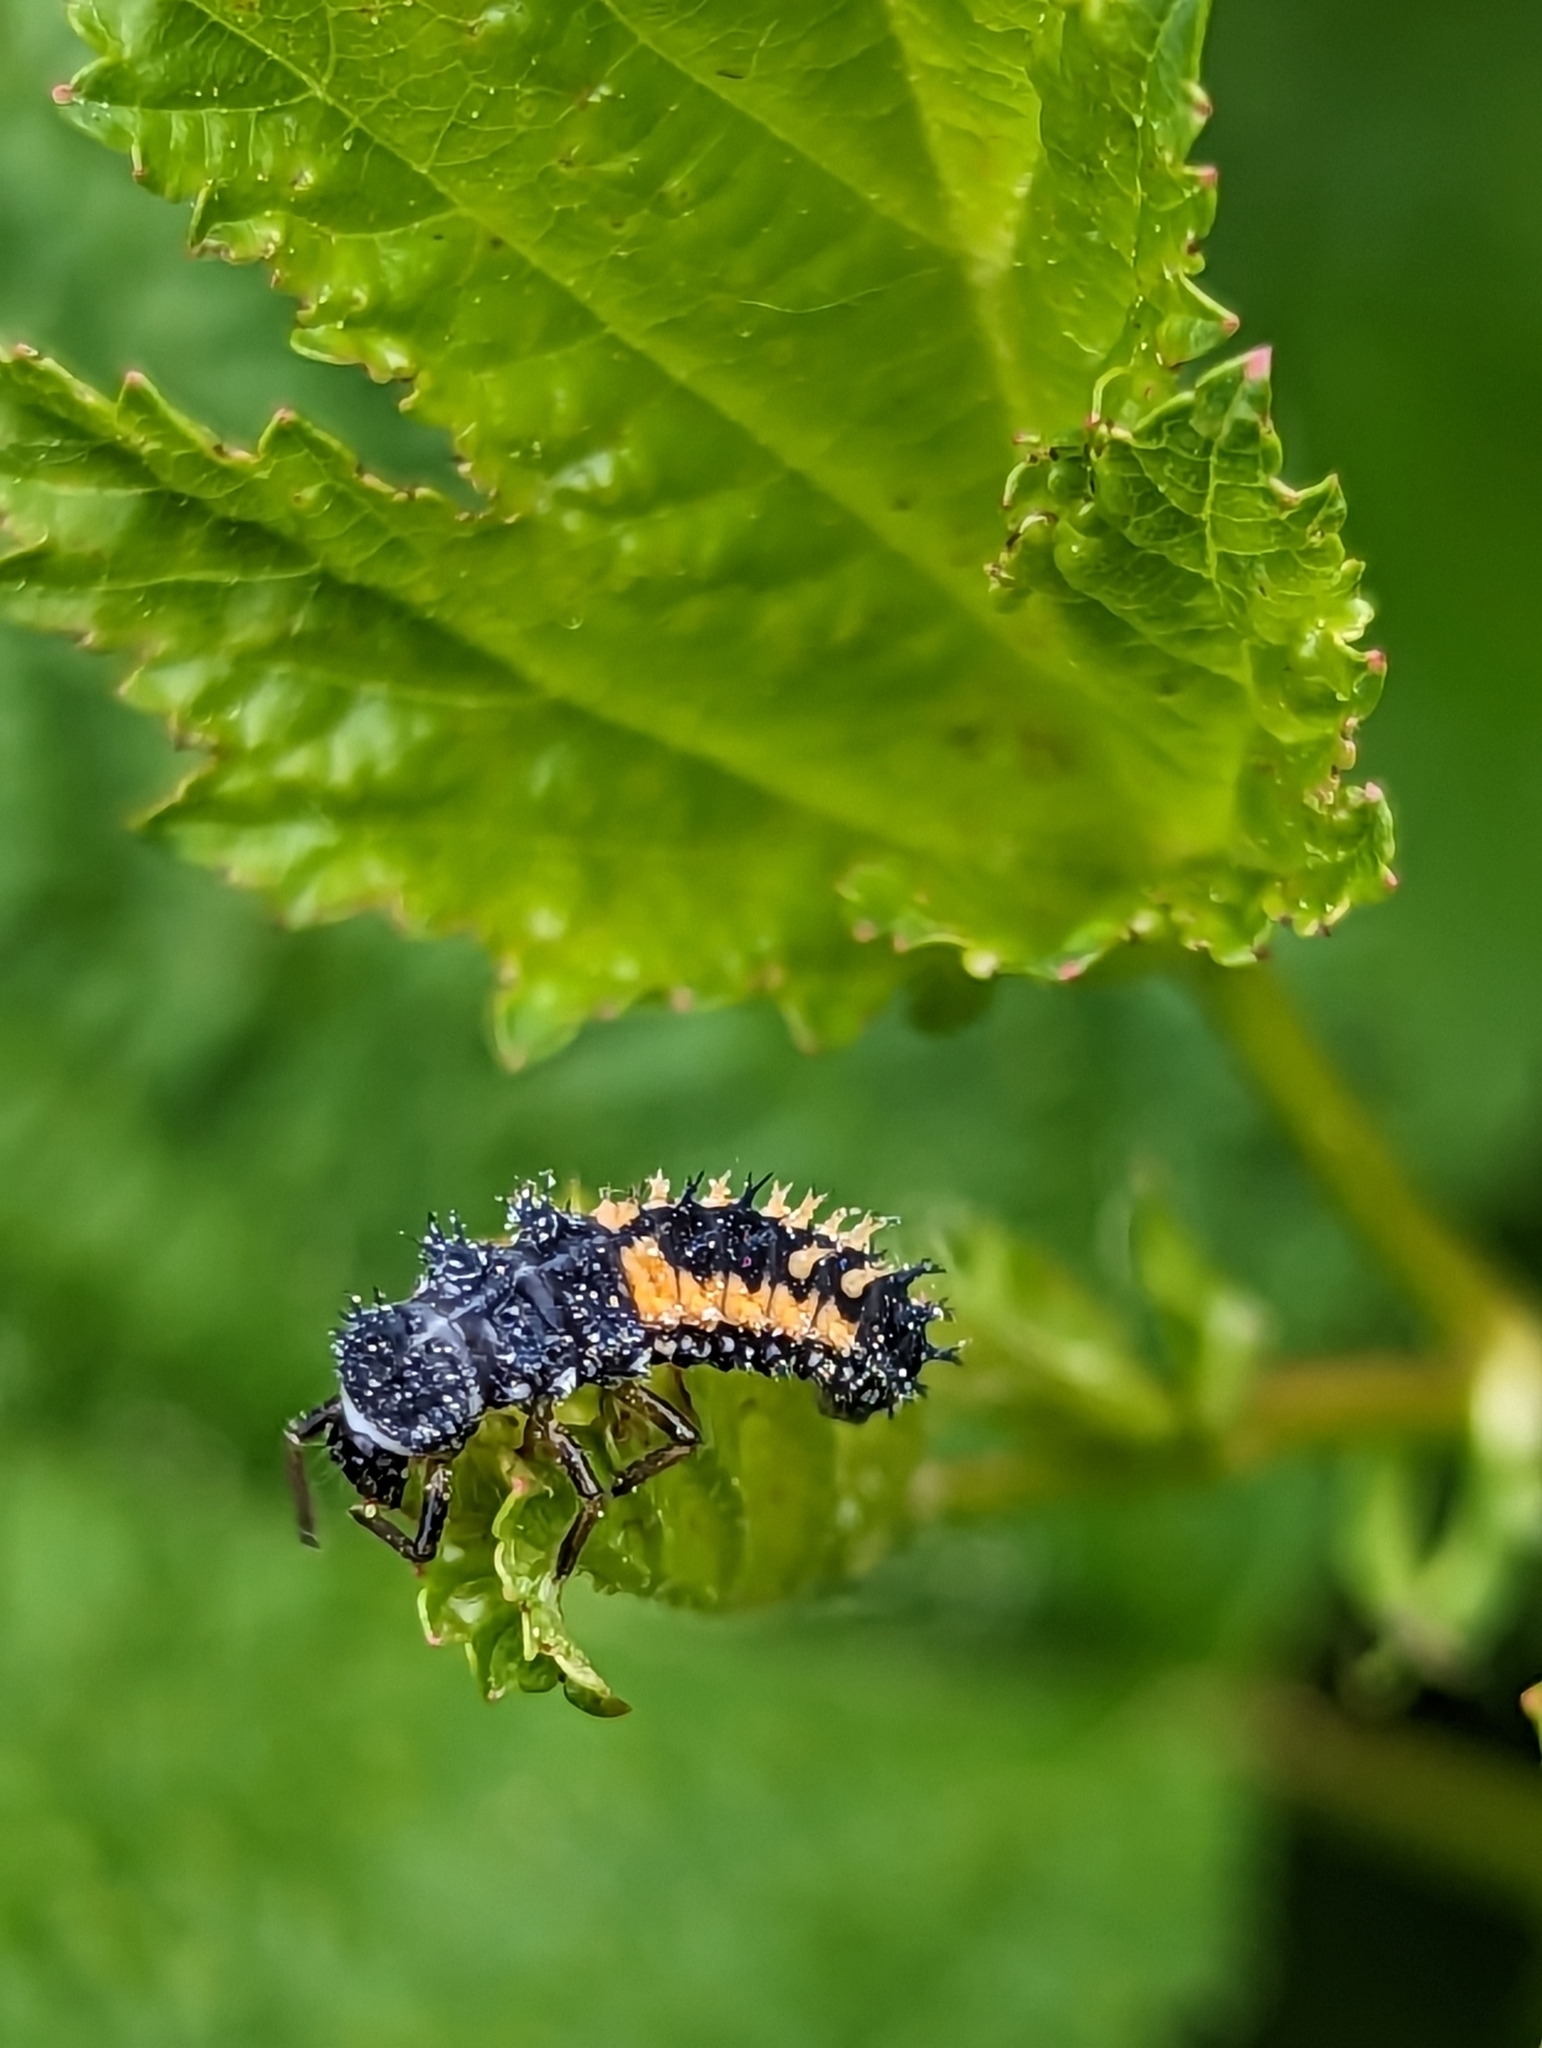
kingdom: Animalia
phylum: Arthropoda
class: Insecta
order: Coleoptera
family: Coccinellidae
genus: Harmonia
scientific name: Harmonia axyridis
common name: Harlequin ladybird
